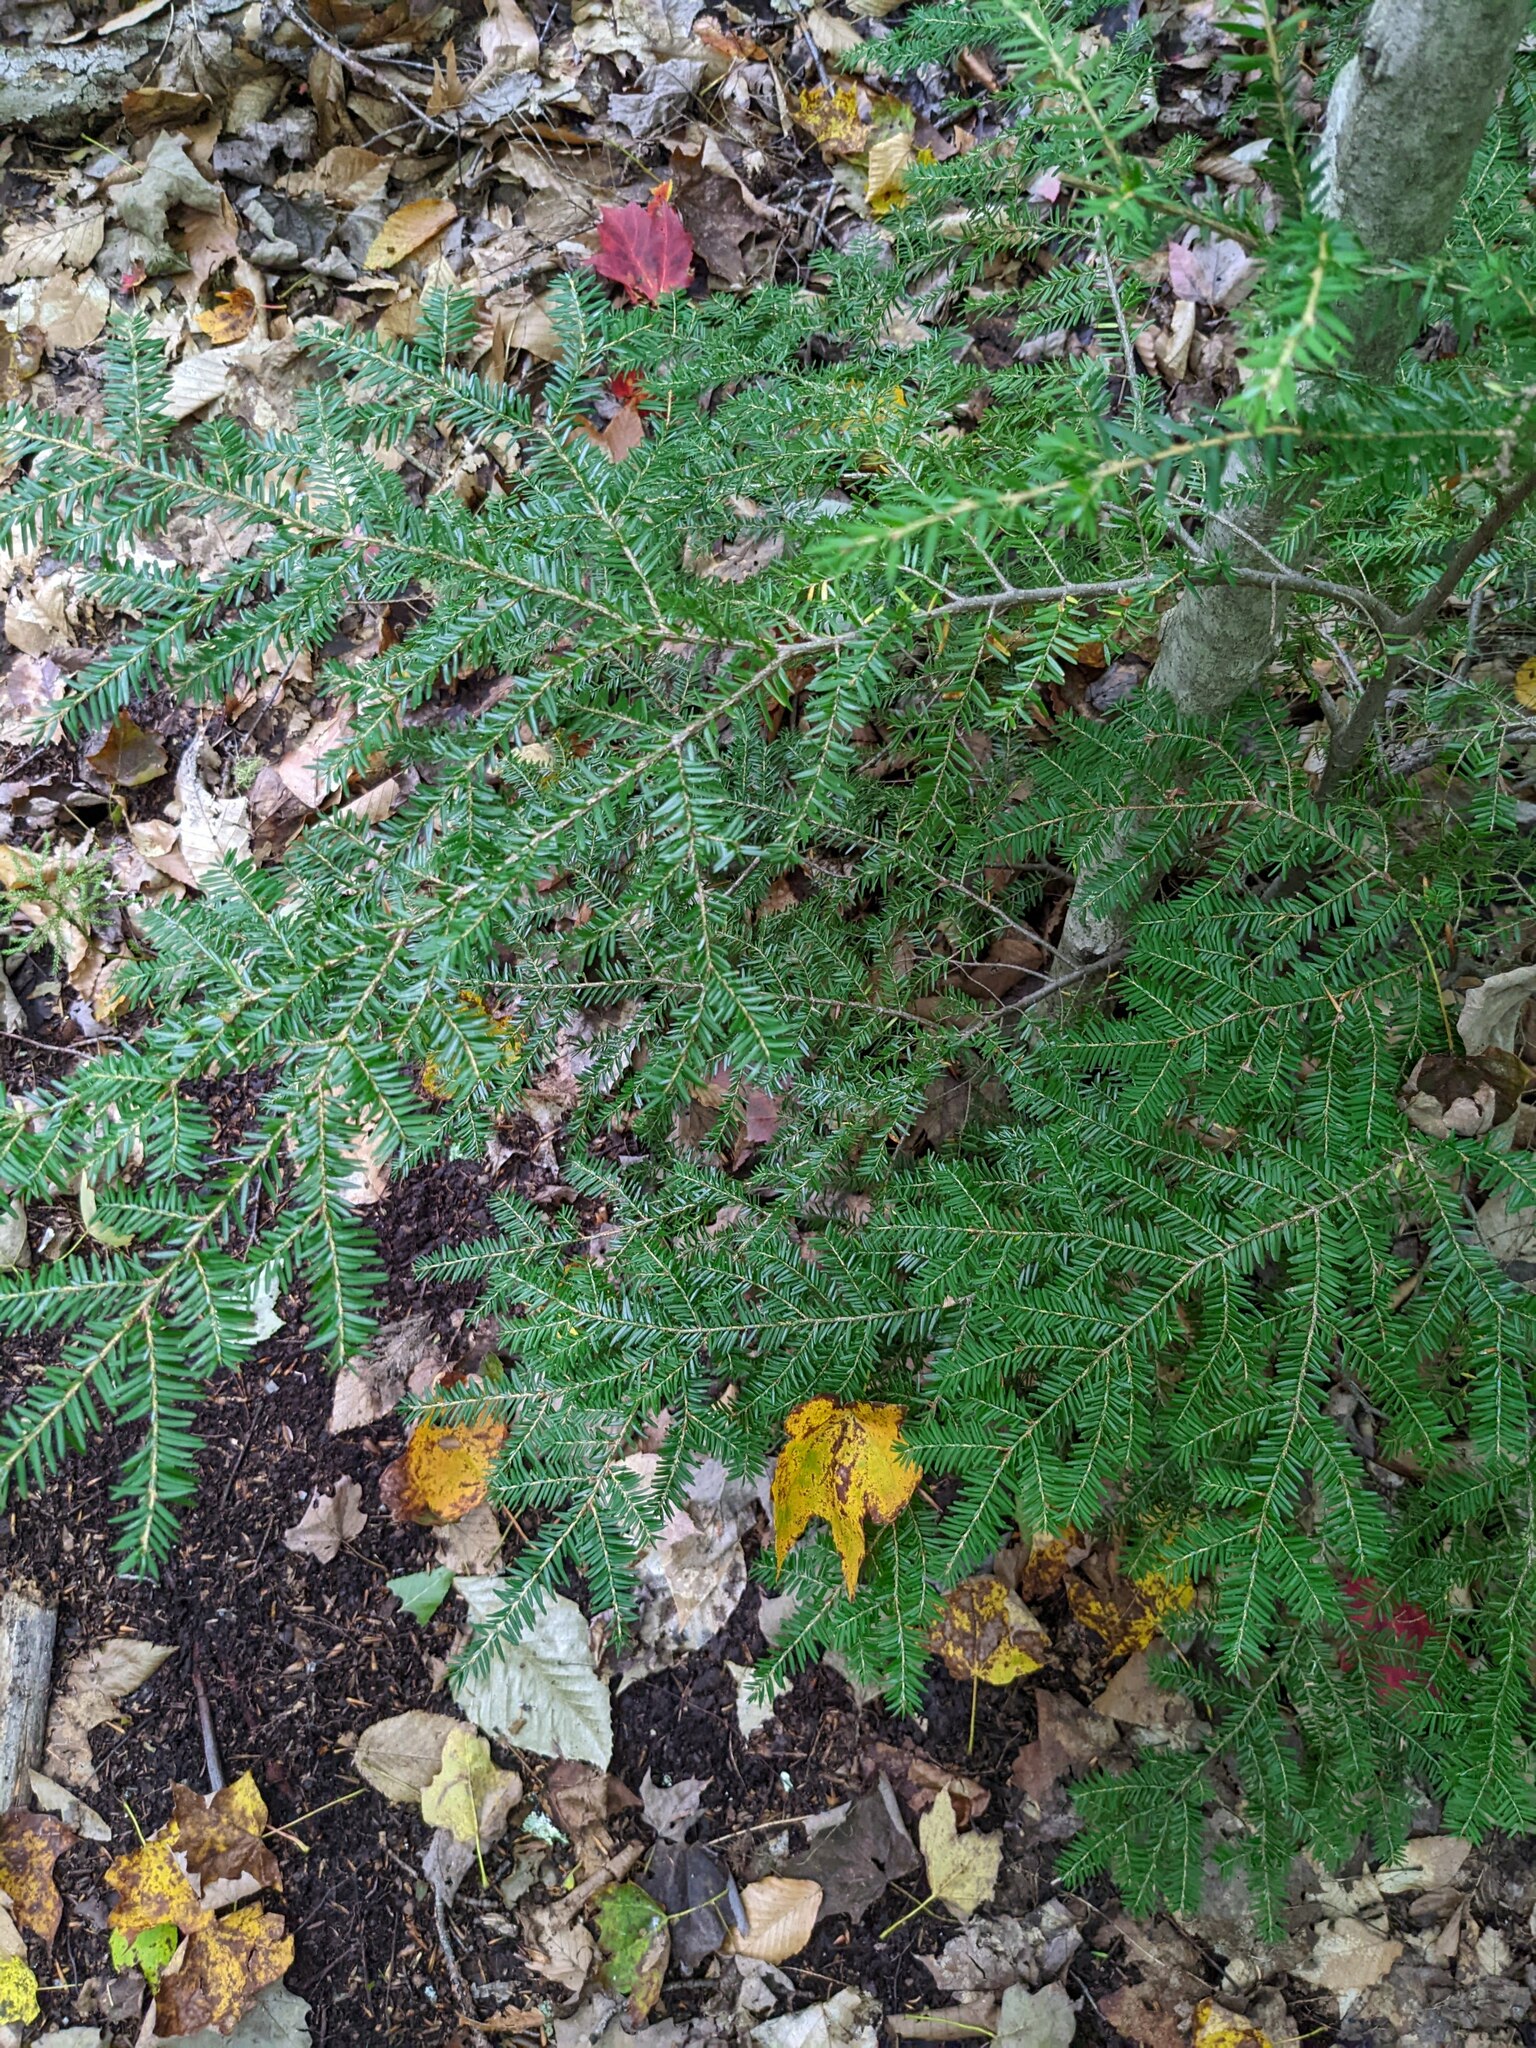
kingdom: Plantae
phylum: Tracheophyta
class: Pinopsida
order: Pinales
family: Pinaceae
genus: Tsuga
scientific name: Tsuga canadensis
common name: Eastern hemlock
